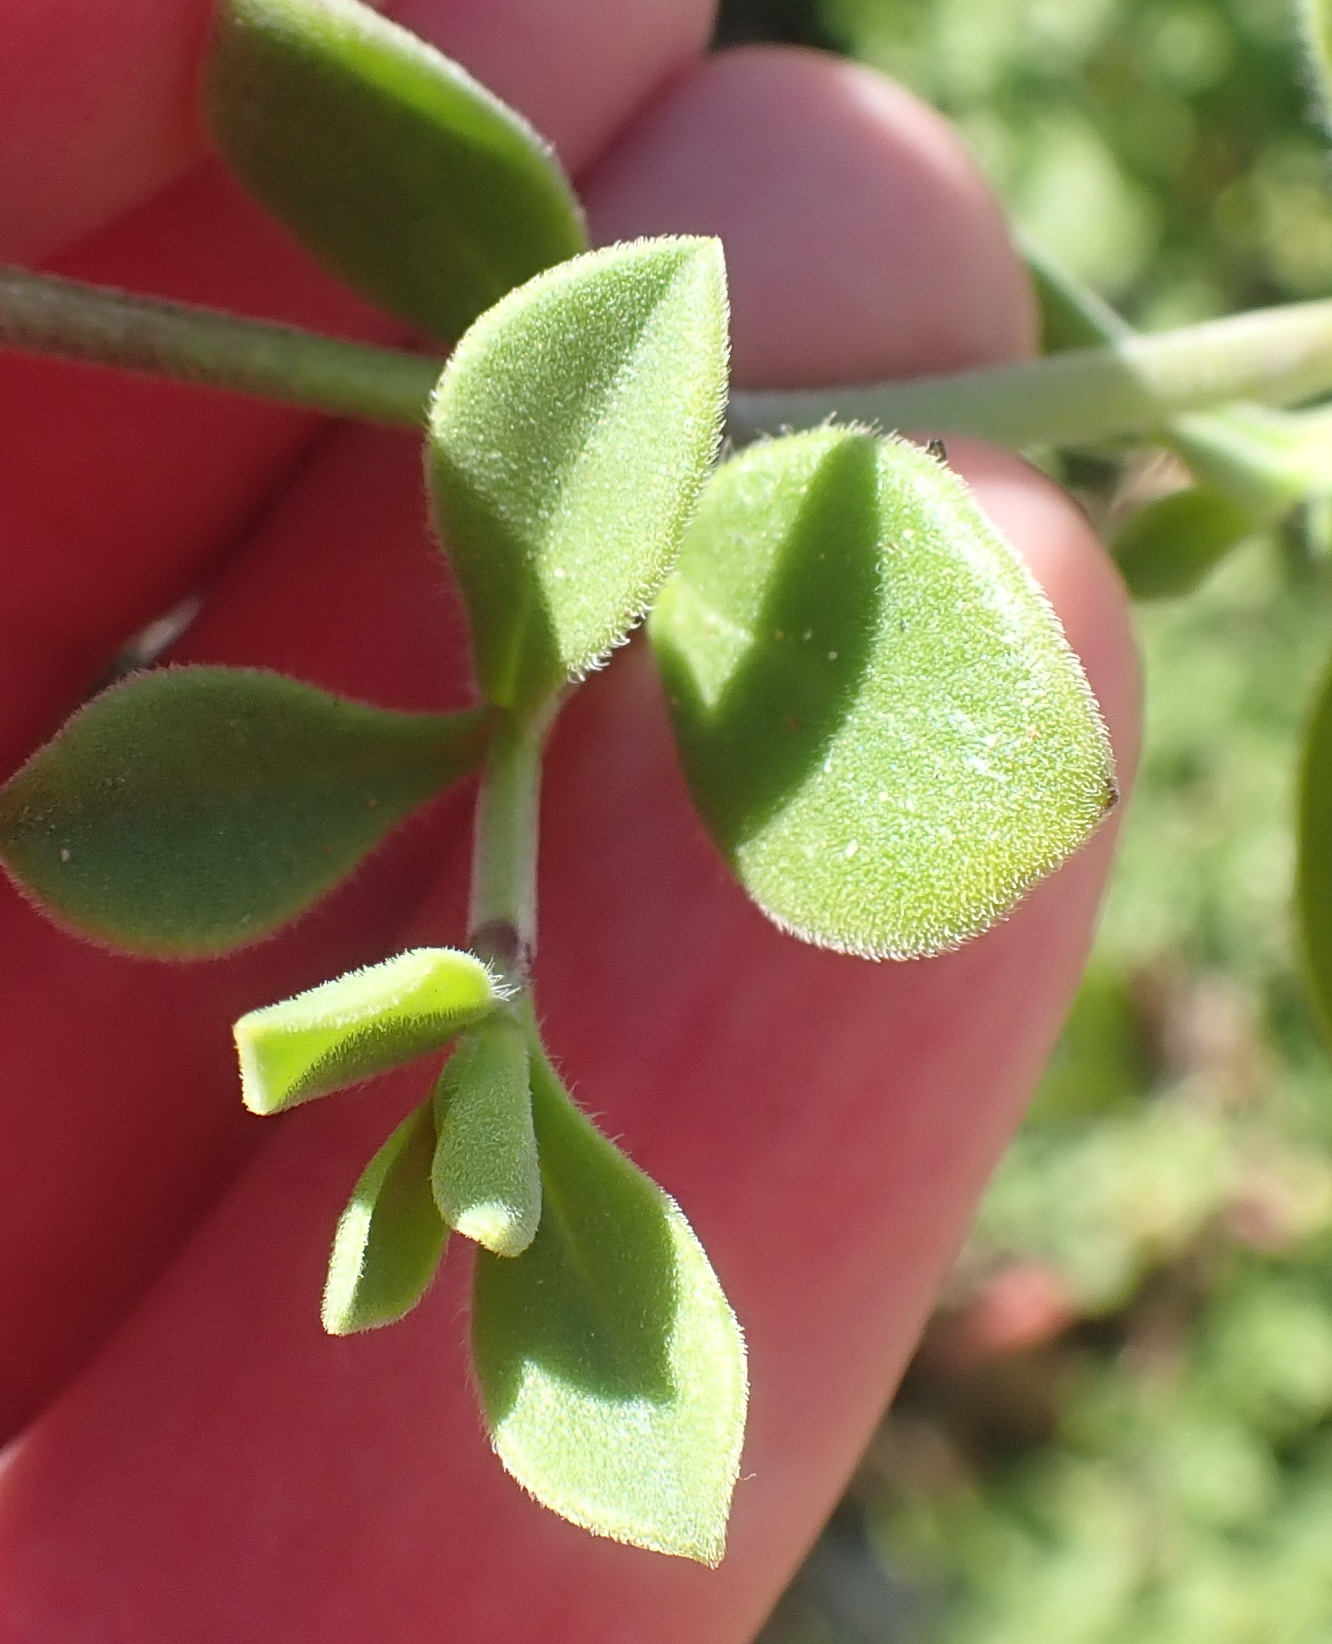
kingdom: Plantae
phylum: Tracheophyta
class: Magnoliopsida
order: Caryophyllales
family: Caryophyllaceae
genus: Silene
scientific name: Silene crassifolia
